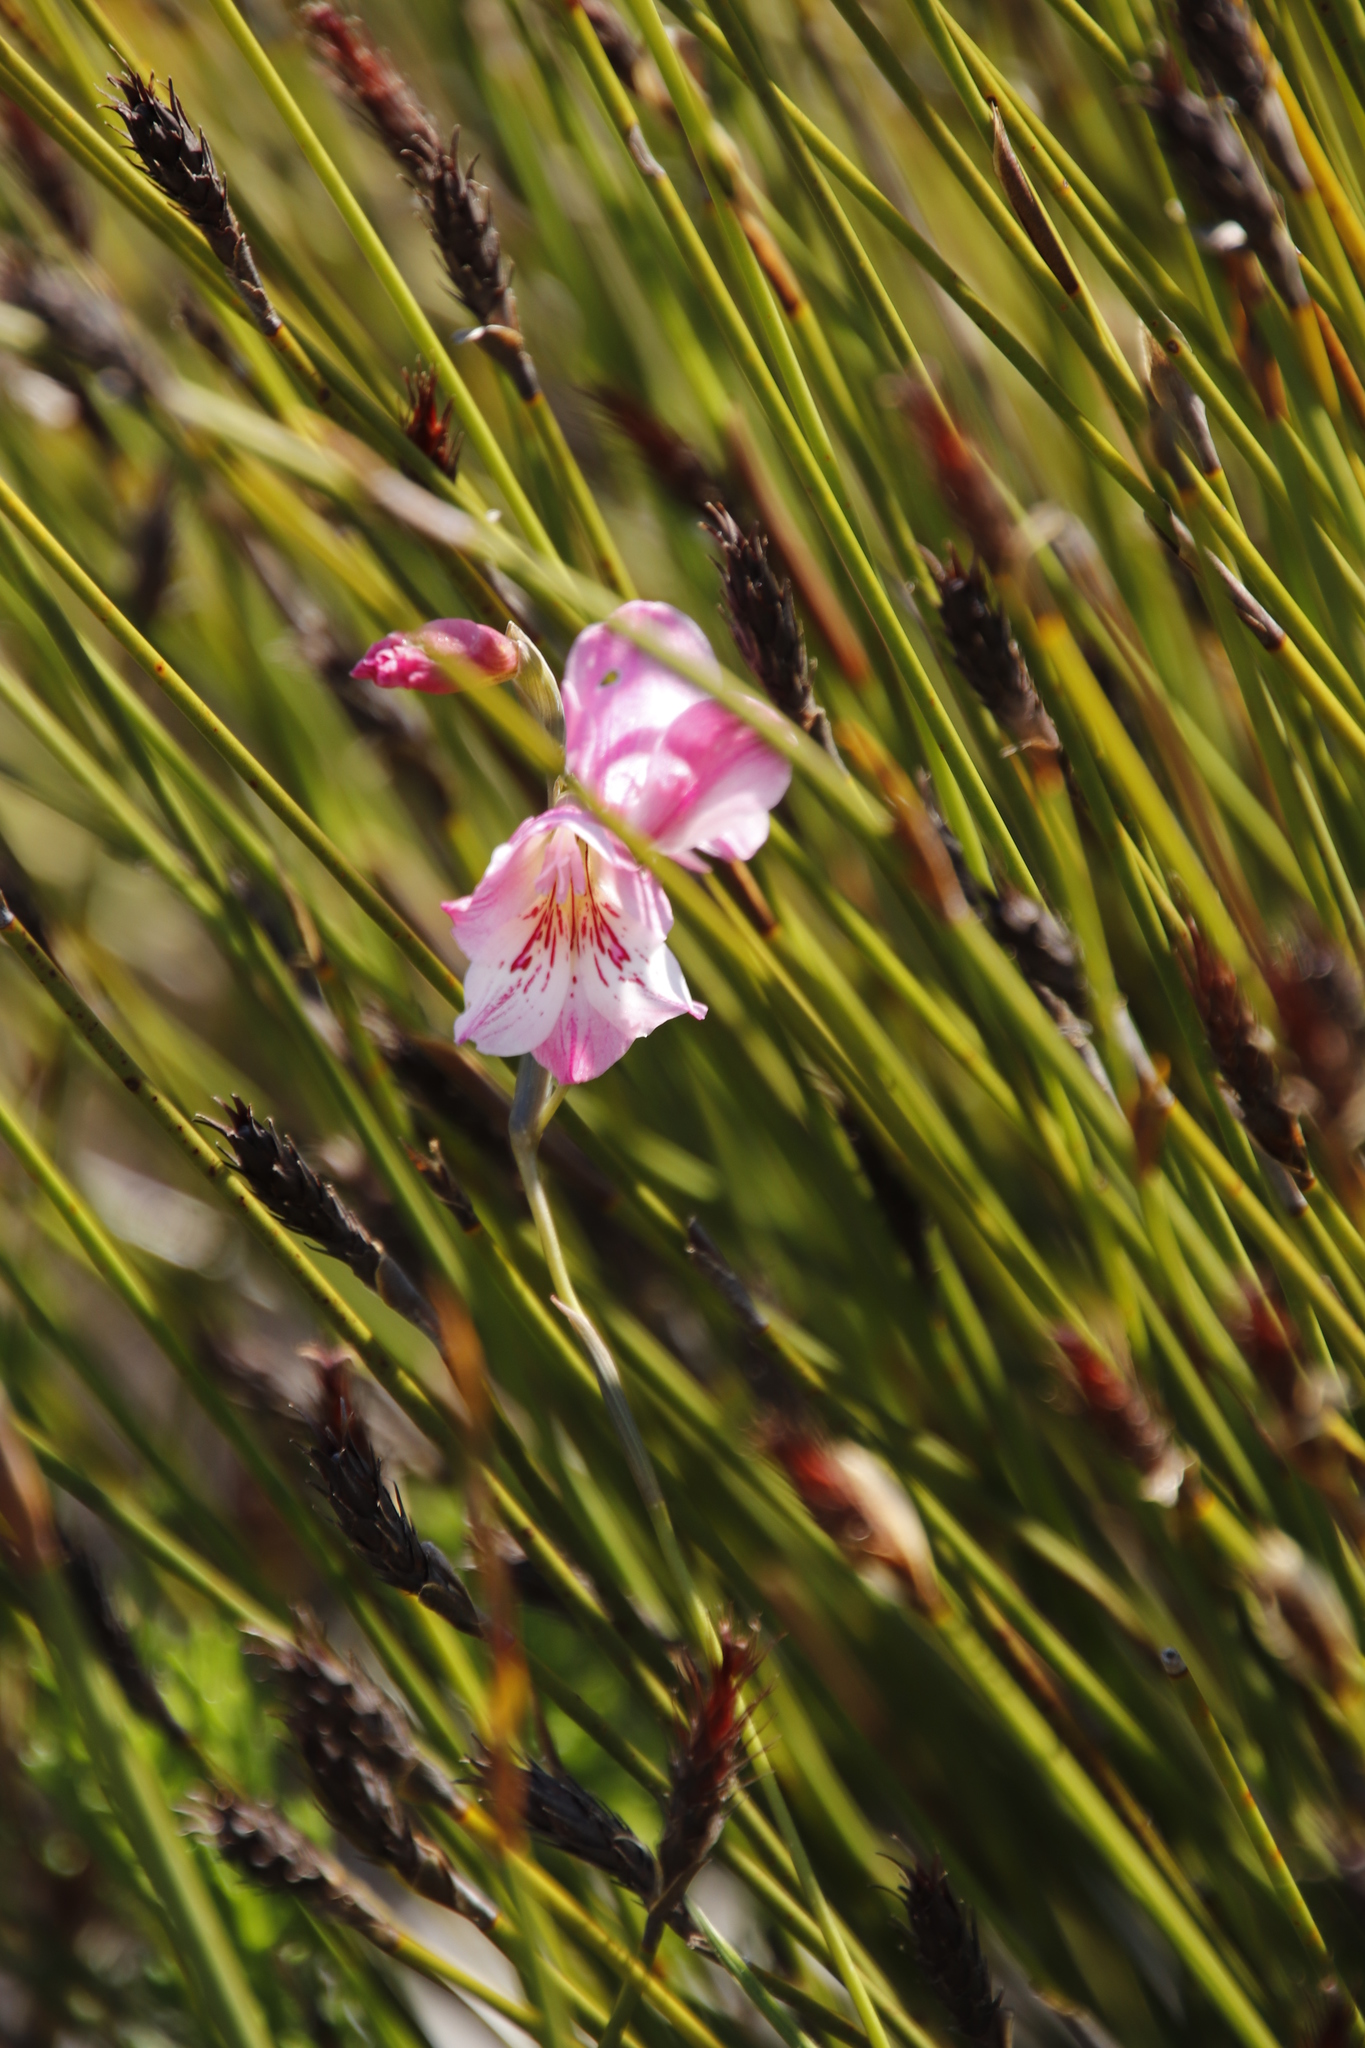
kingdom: Plantae
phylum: Tracheophyta
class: Liliopsida
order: Asparagales
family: Iridaceae
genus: Gladiolus
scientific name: Gladiolus hirsutus
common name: Small pink afrikaner
